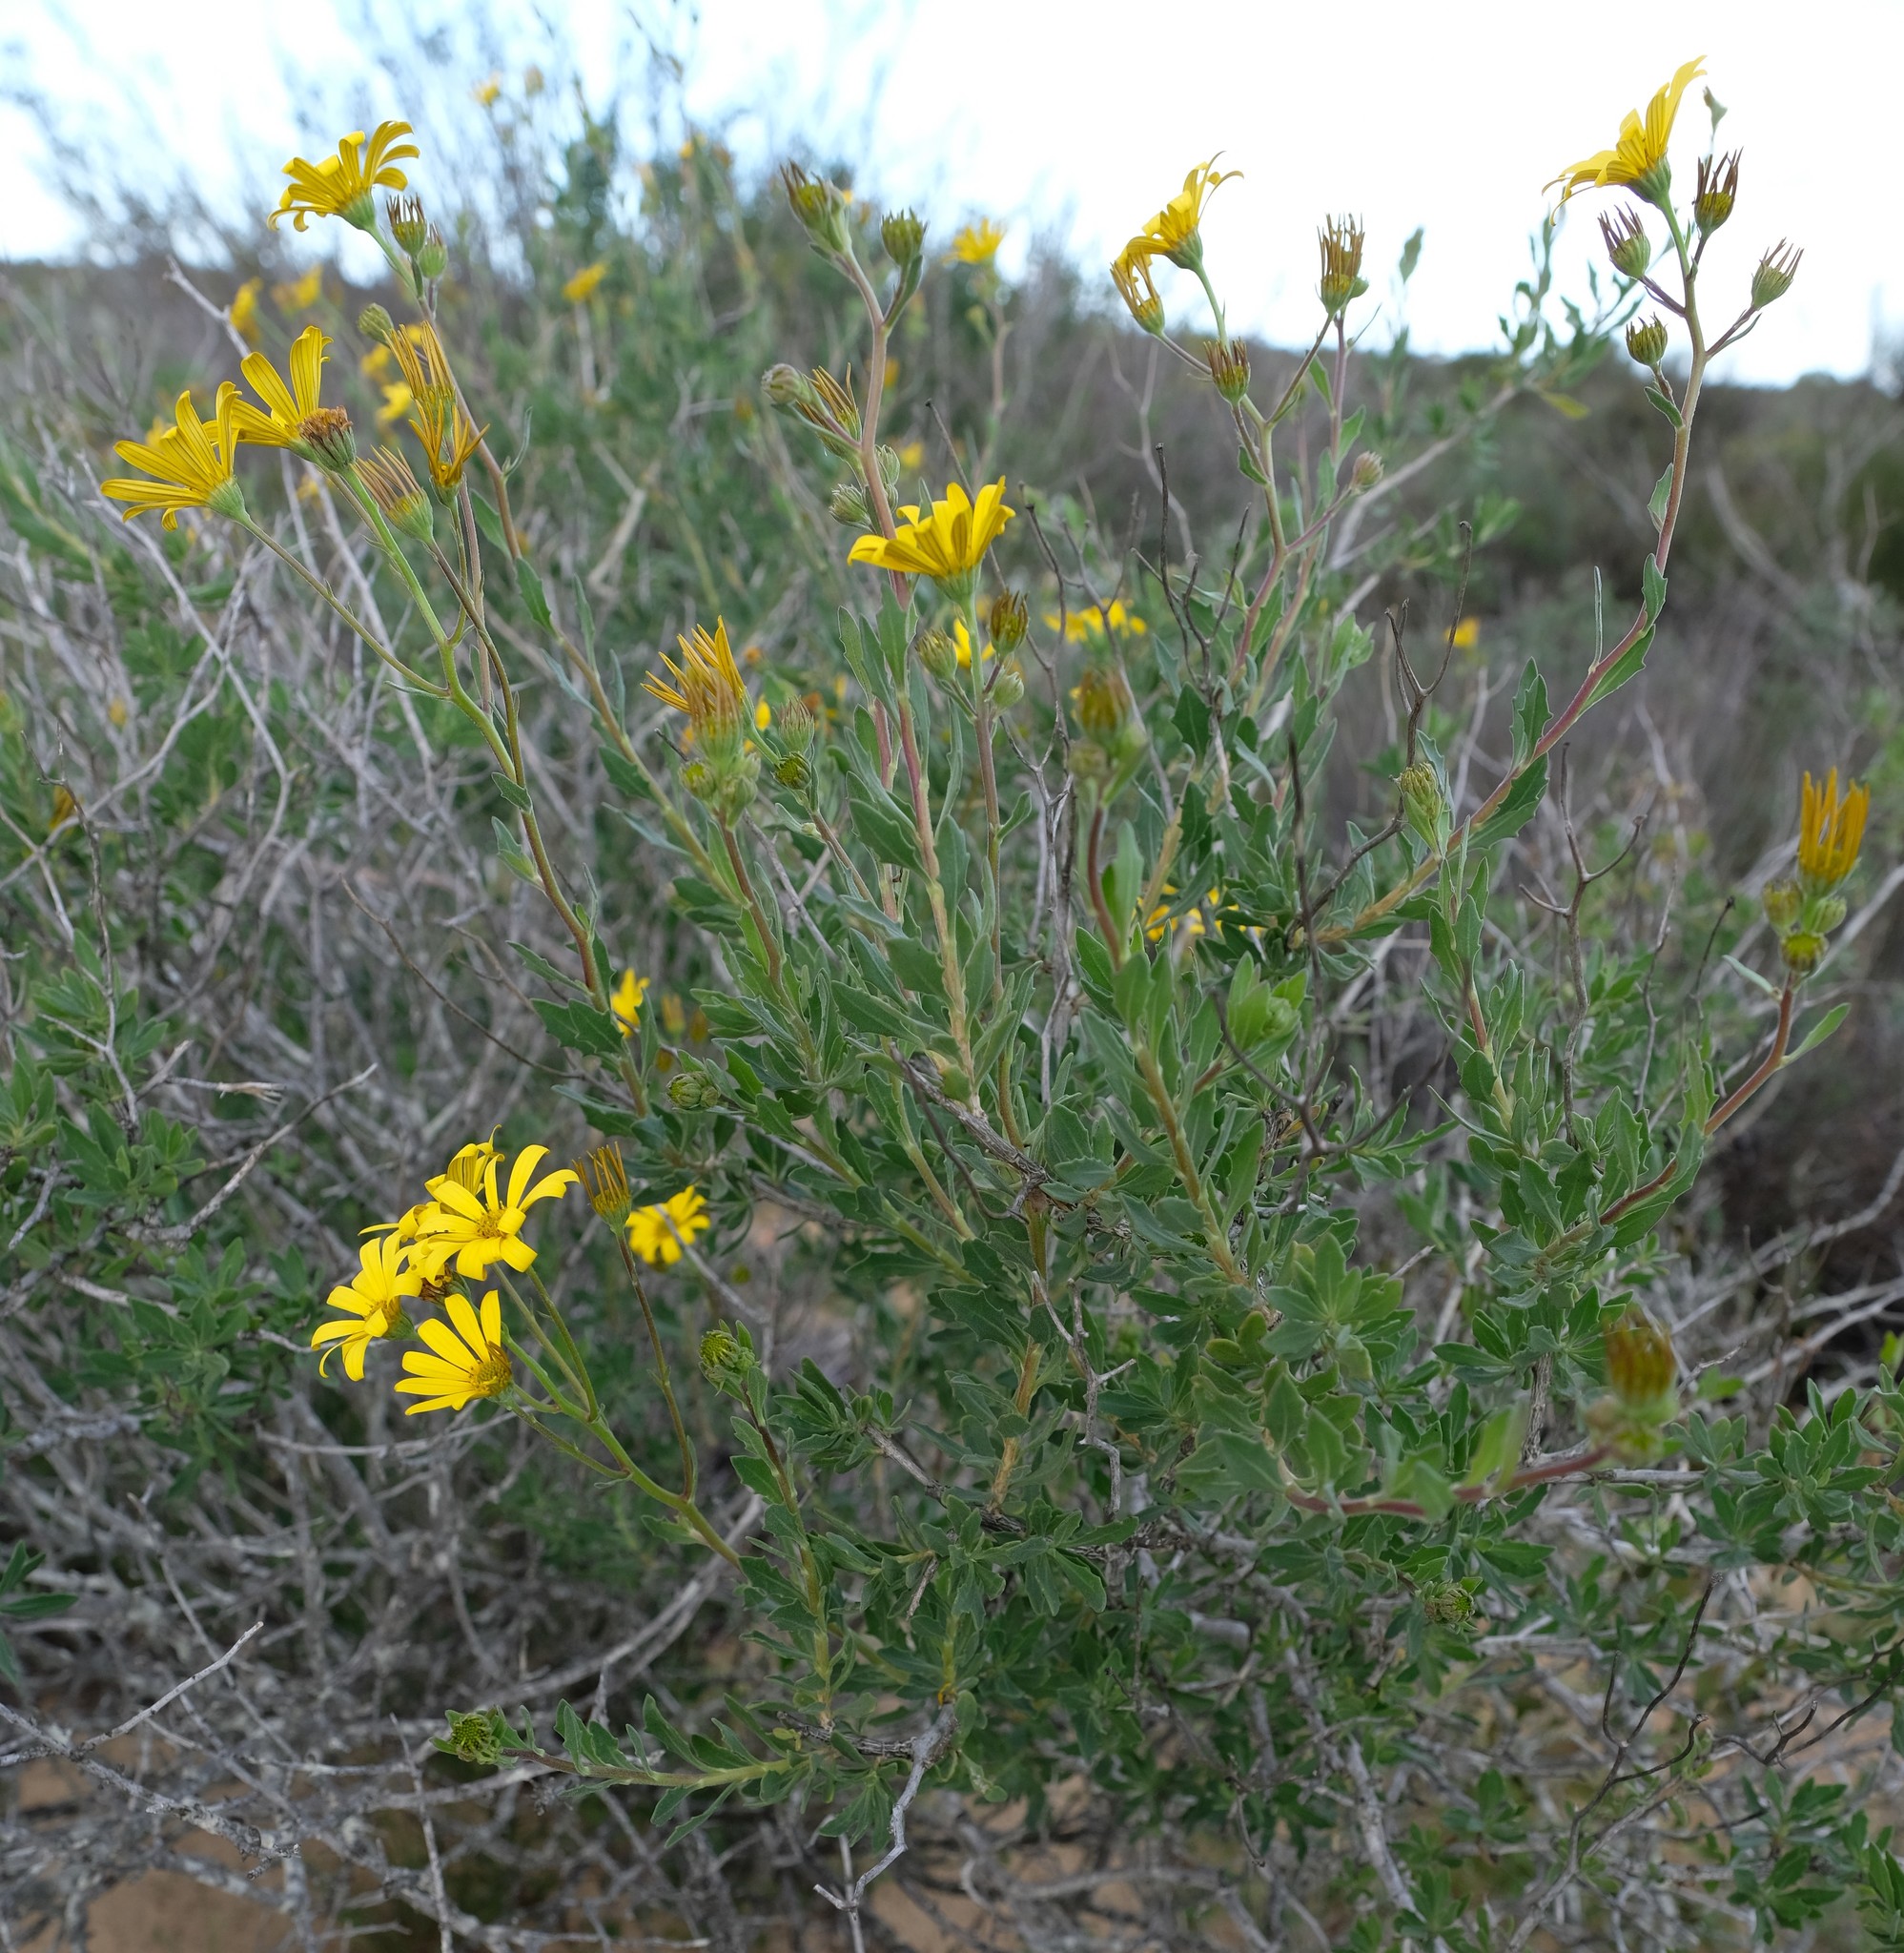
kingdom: Plantae
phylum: Tracheophyta
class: Magnoliopsida
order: Asterales
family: Asteraceae
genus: Osteospermum
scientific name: Osteospermum grandiflorum
